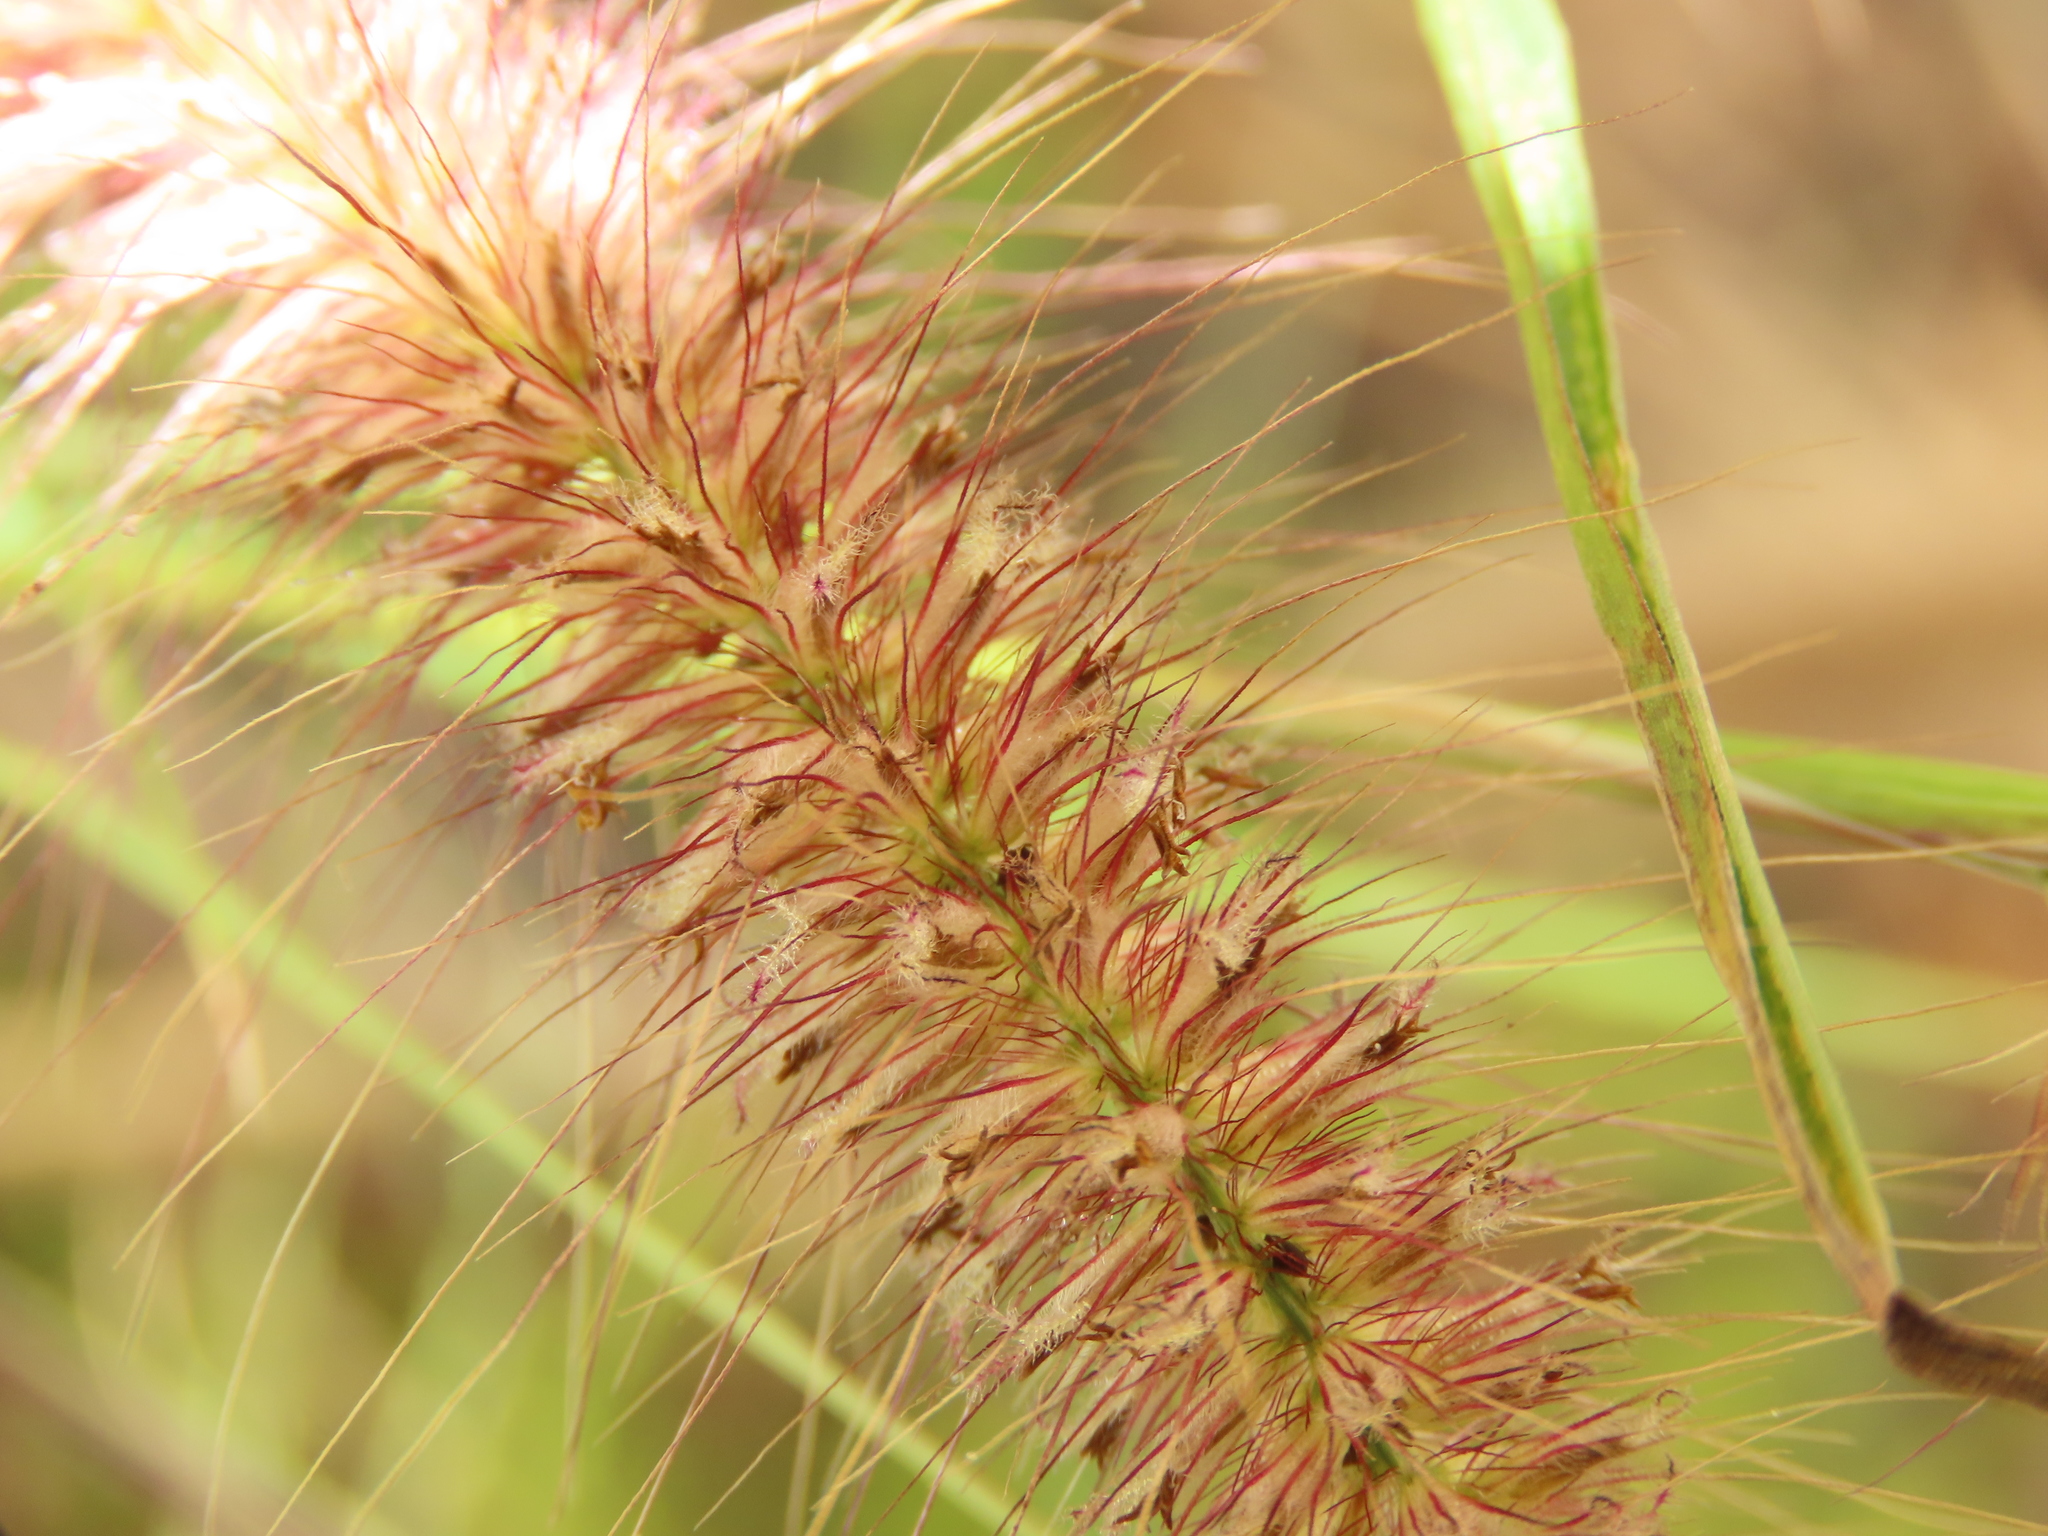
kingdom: Plantae
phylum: Tracheophyta
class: Liliopsida
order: Poales
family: Poaceae
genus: Cenchrus
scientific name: Cenchrus setosus
